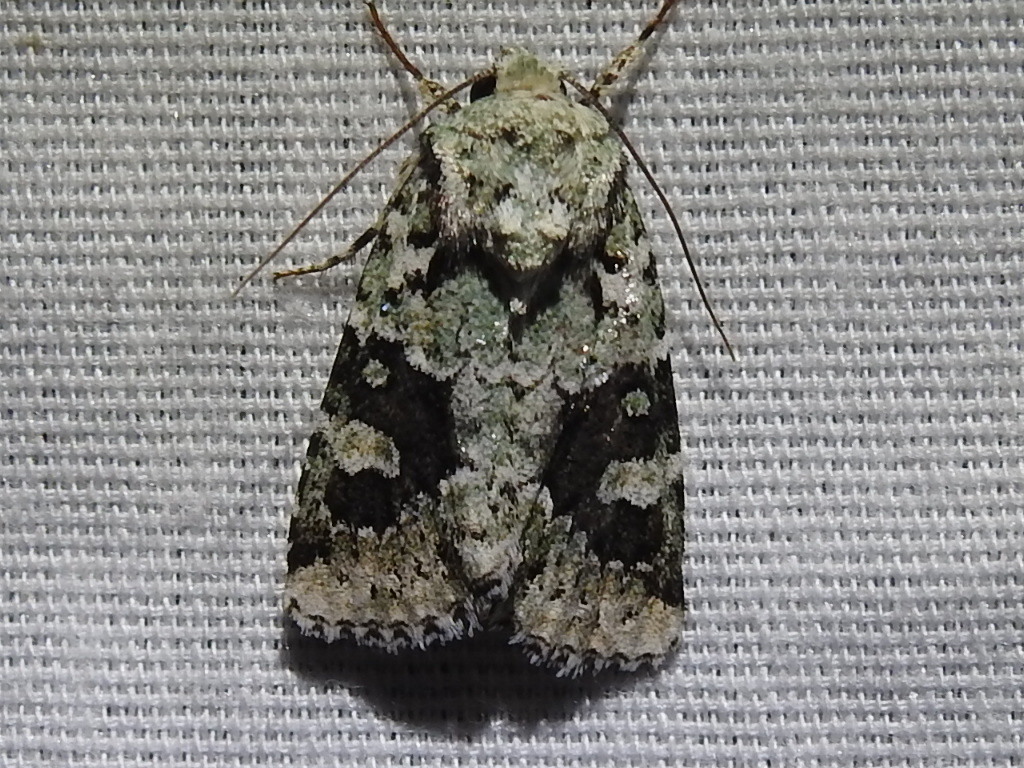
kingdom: Animalia
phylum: Arthropoda
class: Insecta
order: Lepidoptera
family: Noctuidae
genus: Lacinipolia
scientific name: Lacinipolia laudabilis
